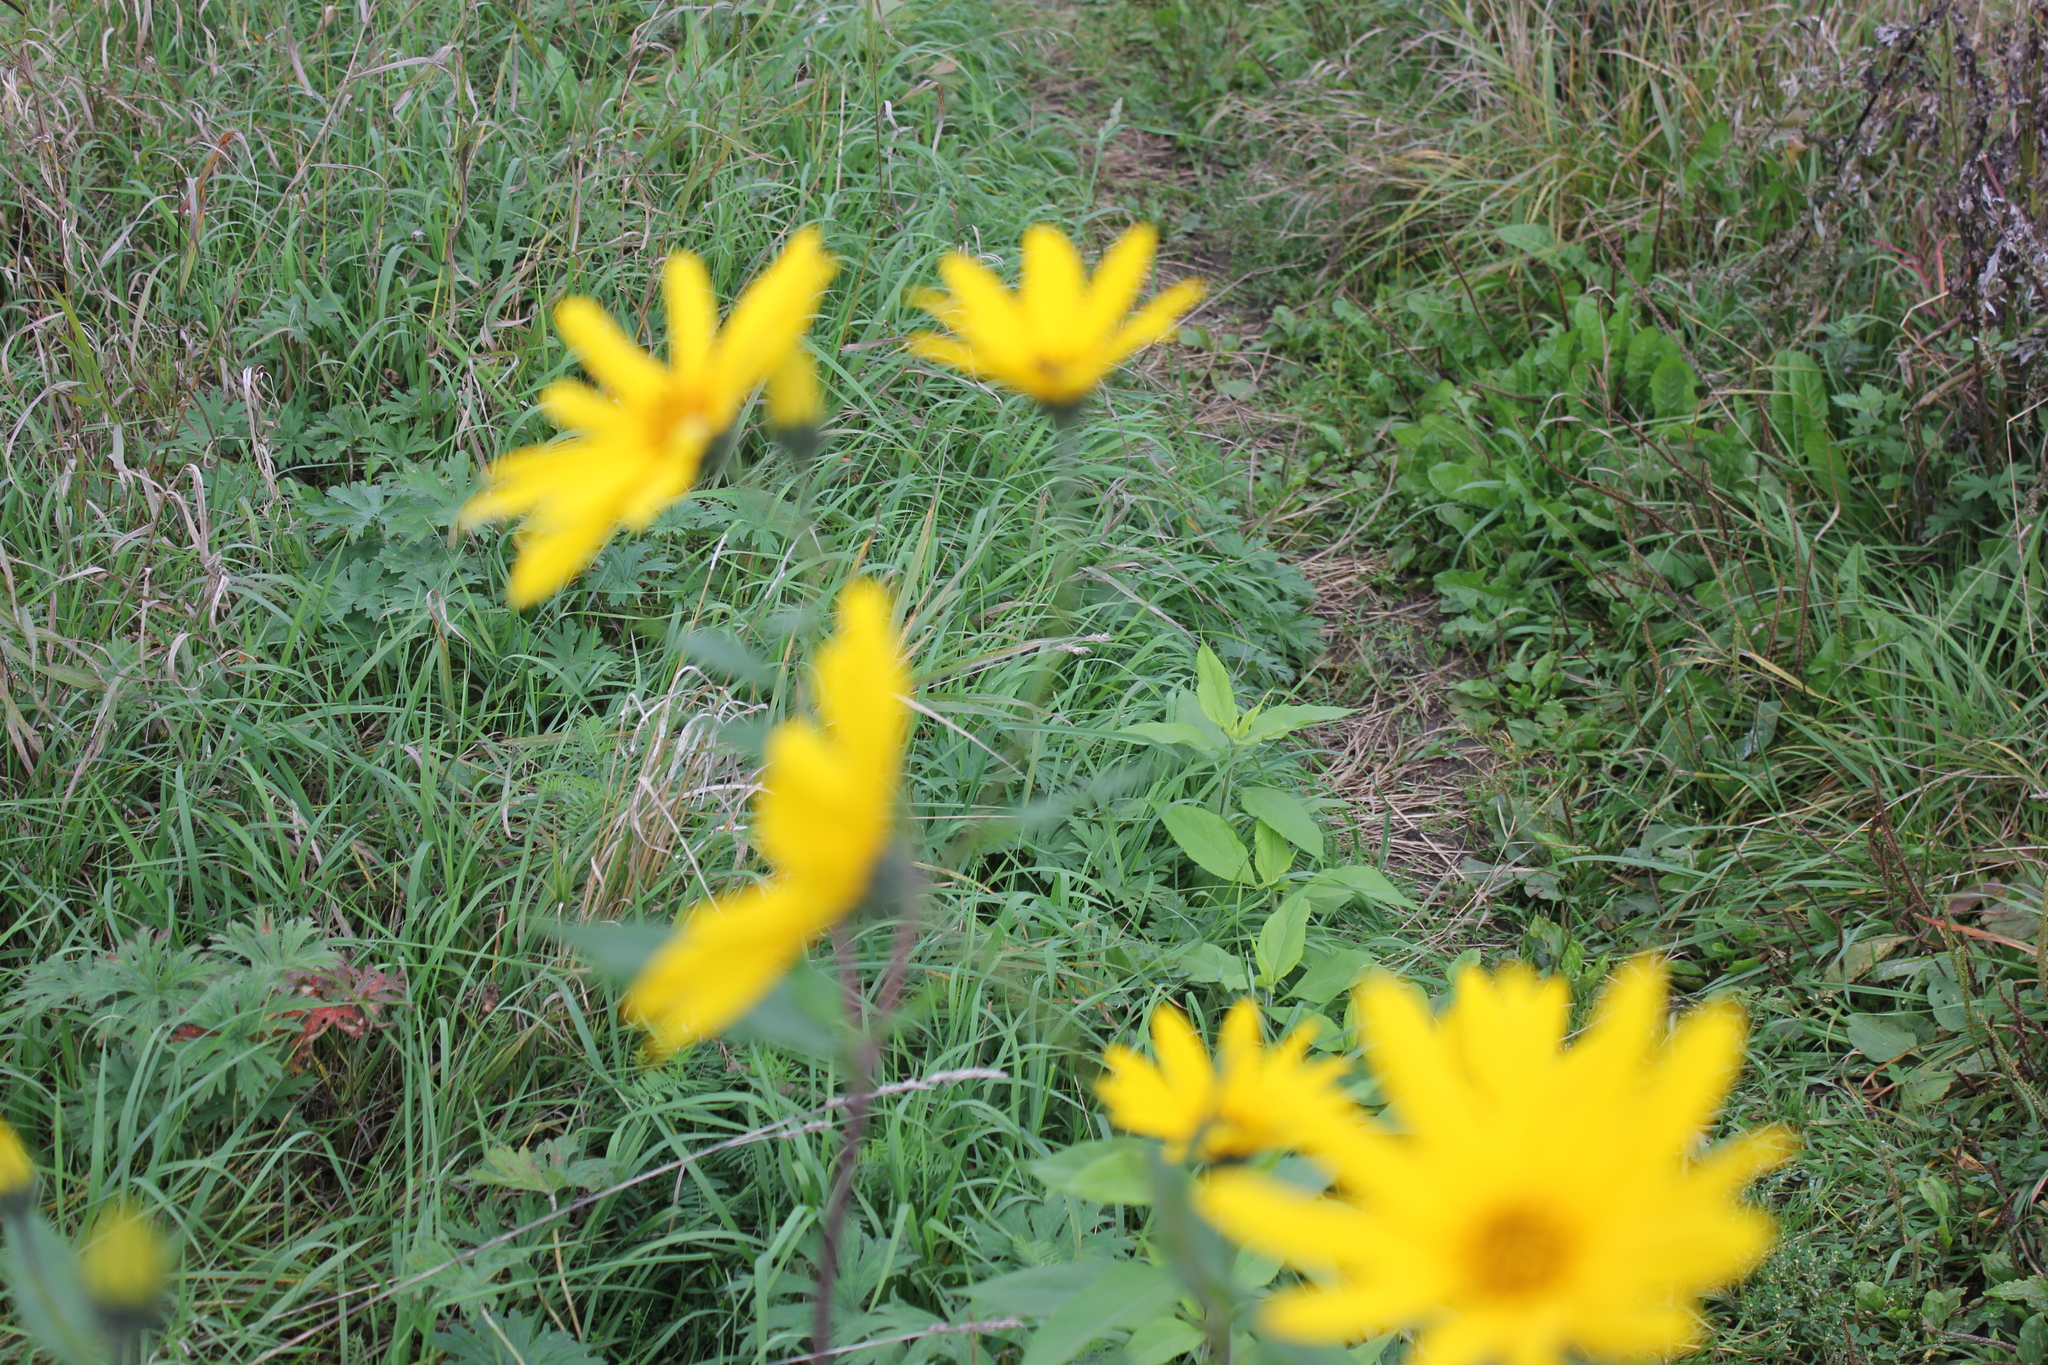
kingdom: Plantae
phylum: Tracheophyta
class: Magnoliopsida
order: Asterales
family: Asteraceae
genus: Helianthus
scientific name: Helianthus tuberosus
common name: Jerusalem artichoke
